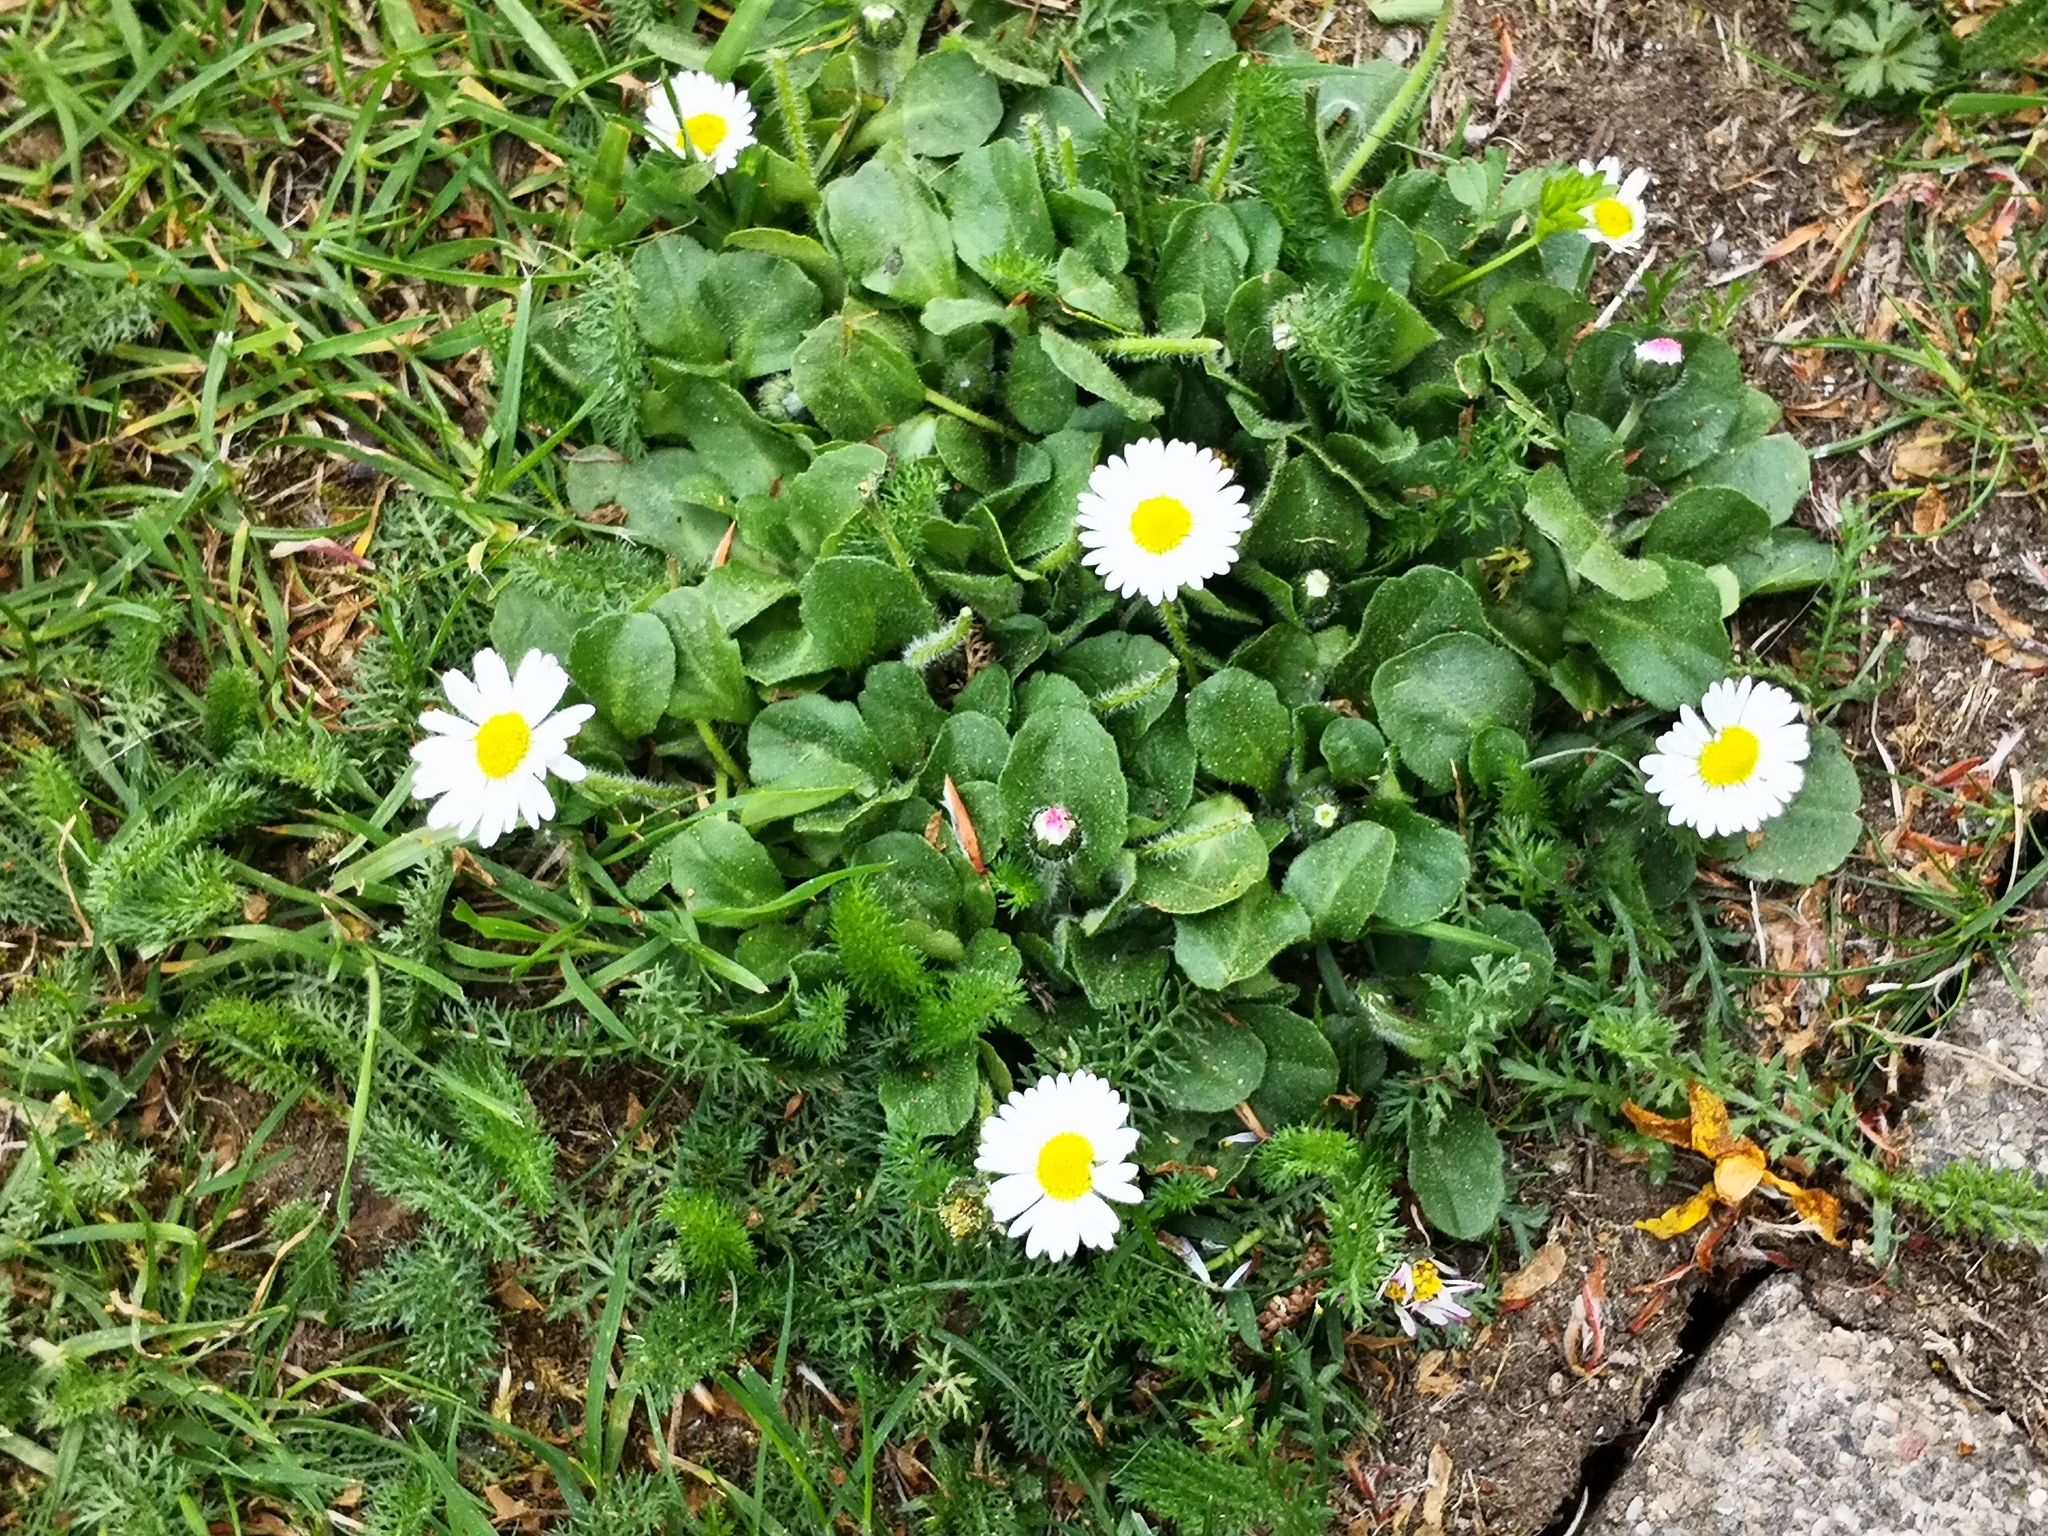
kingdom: Plantae
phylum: Tracheophyta
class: Magnoliopsida
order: Asterales
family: Asteraceae
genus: Bellis
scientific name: Bellis perennis
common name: Lawndaisy
